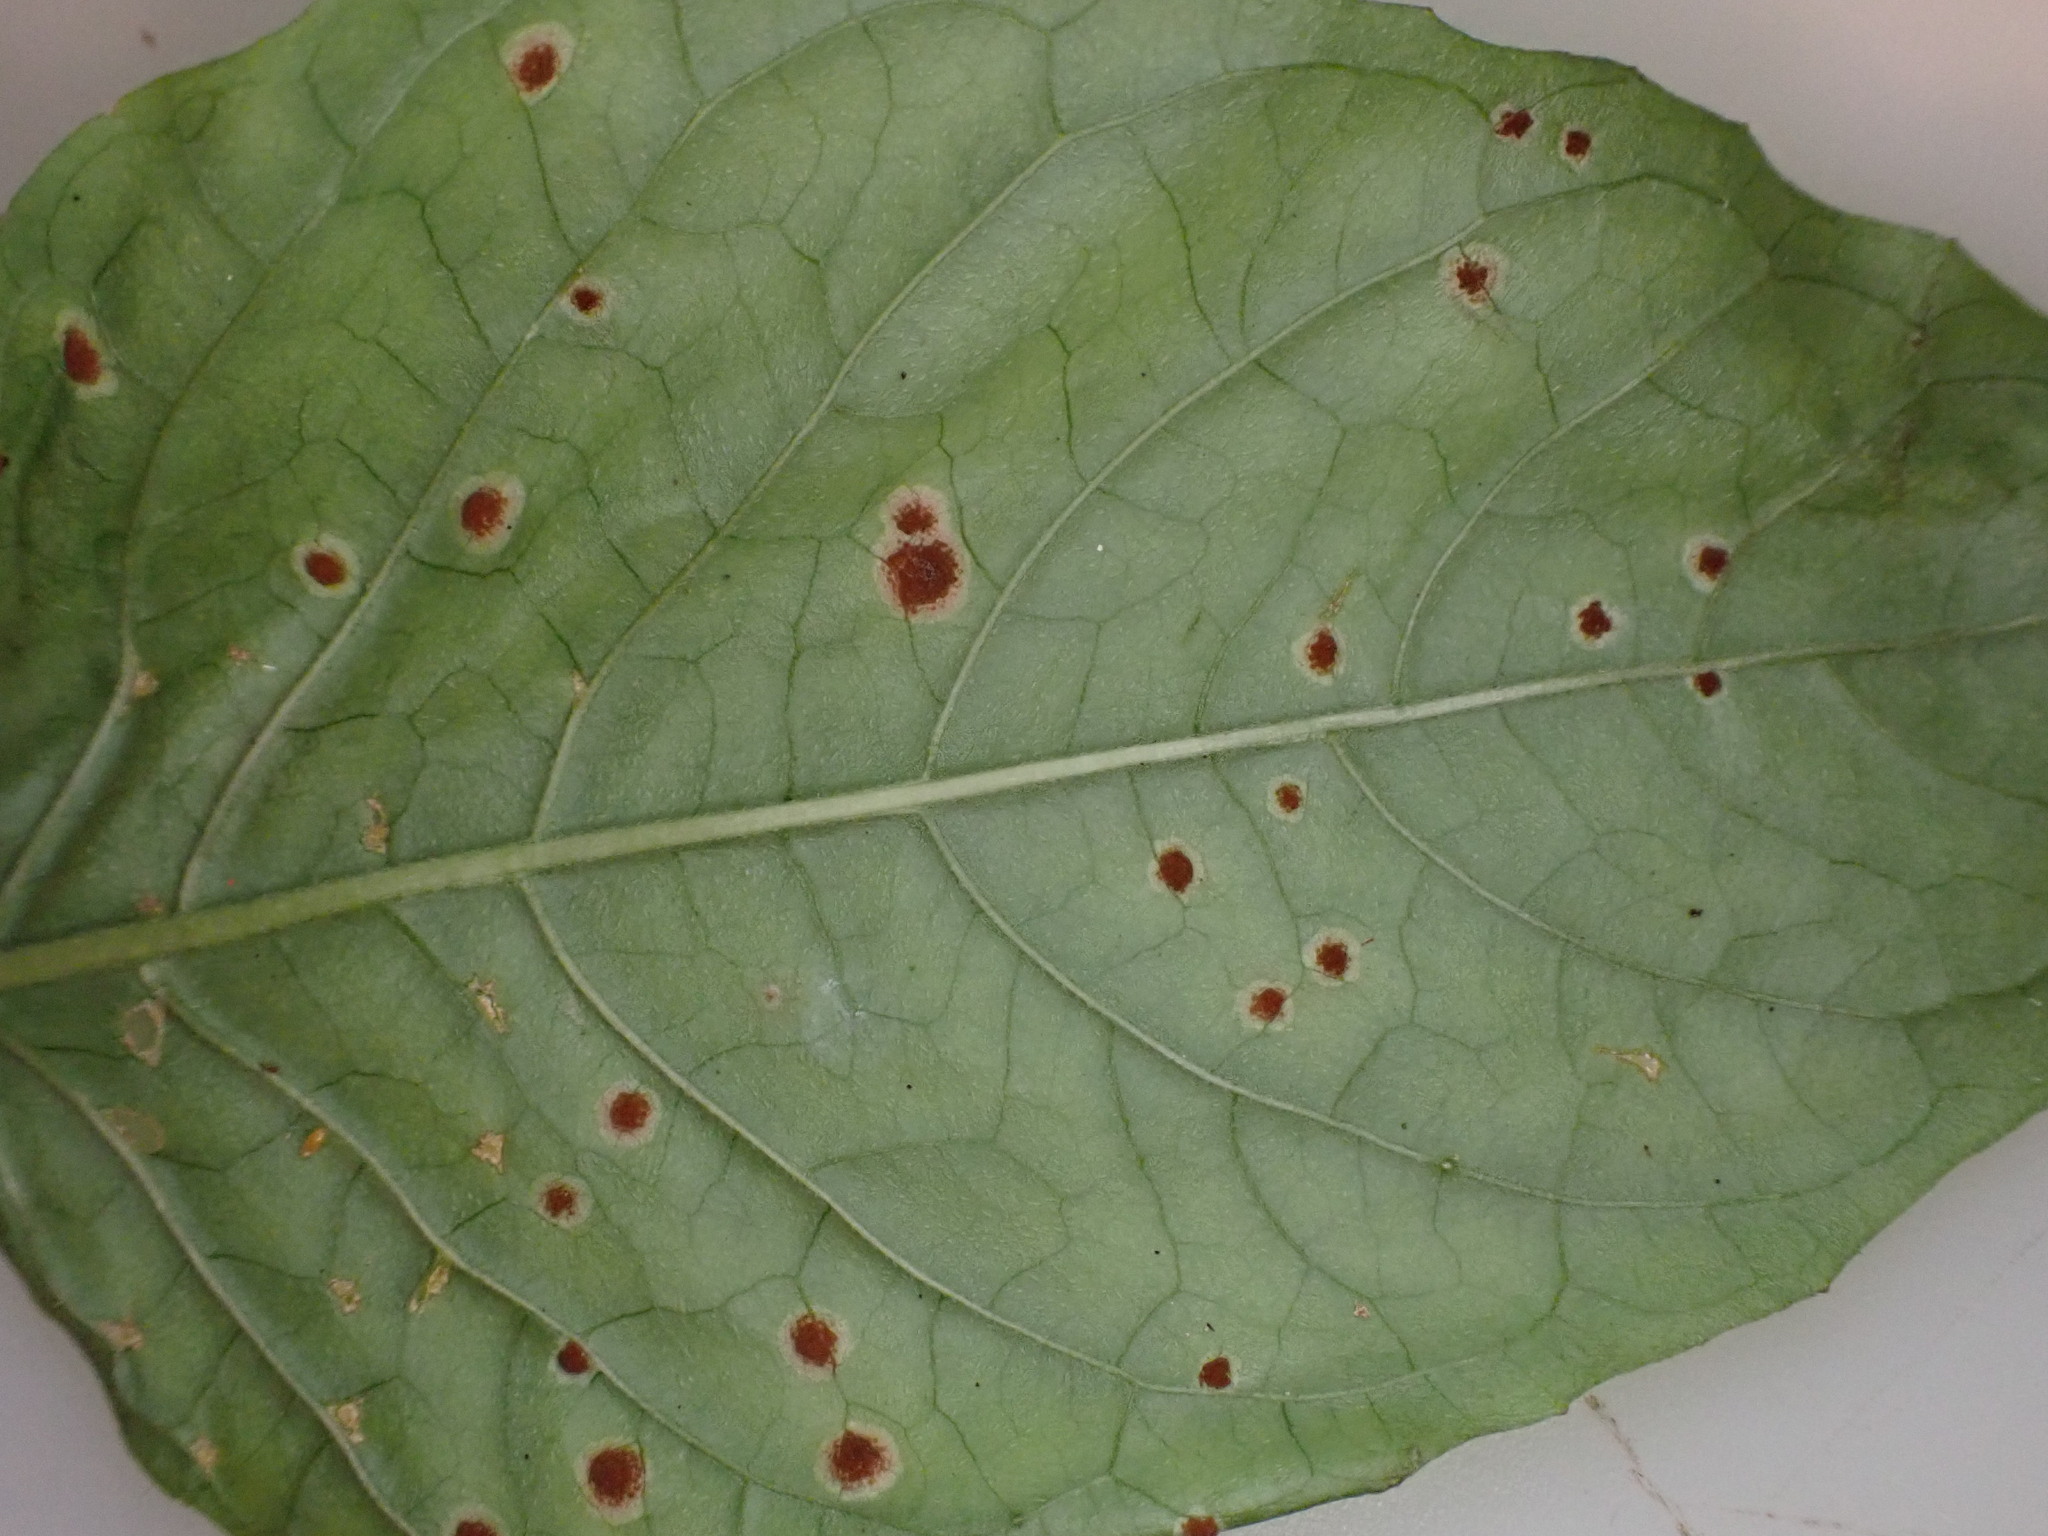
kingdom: Fungi
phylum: Basidiomycota
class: Pucciniomycetes
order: Pucciniales
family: Pucciniaceae
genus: Puccinia
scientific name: Puccinia circaeae
